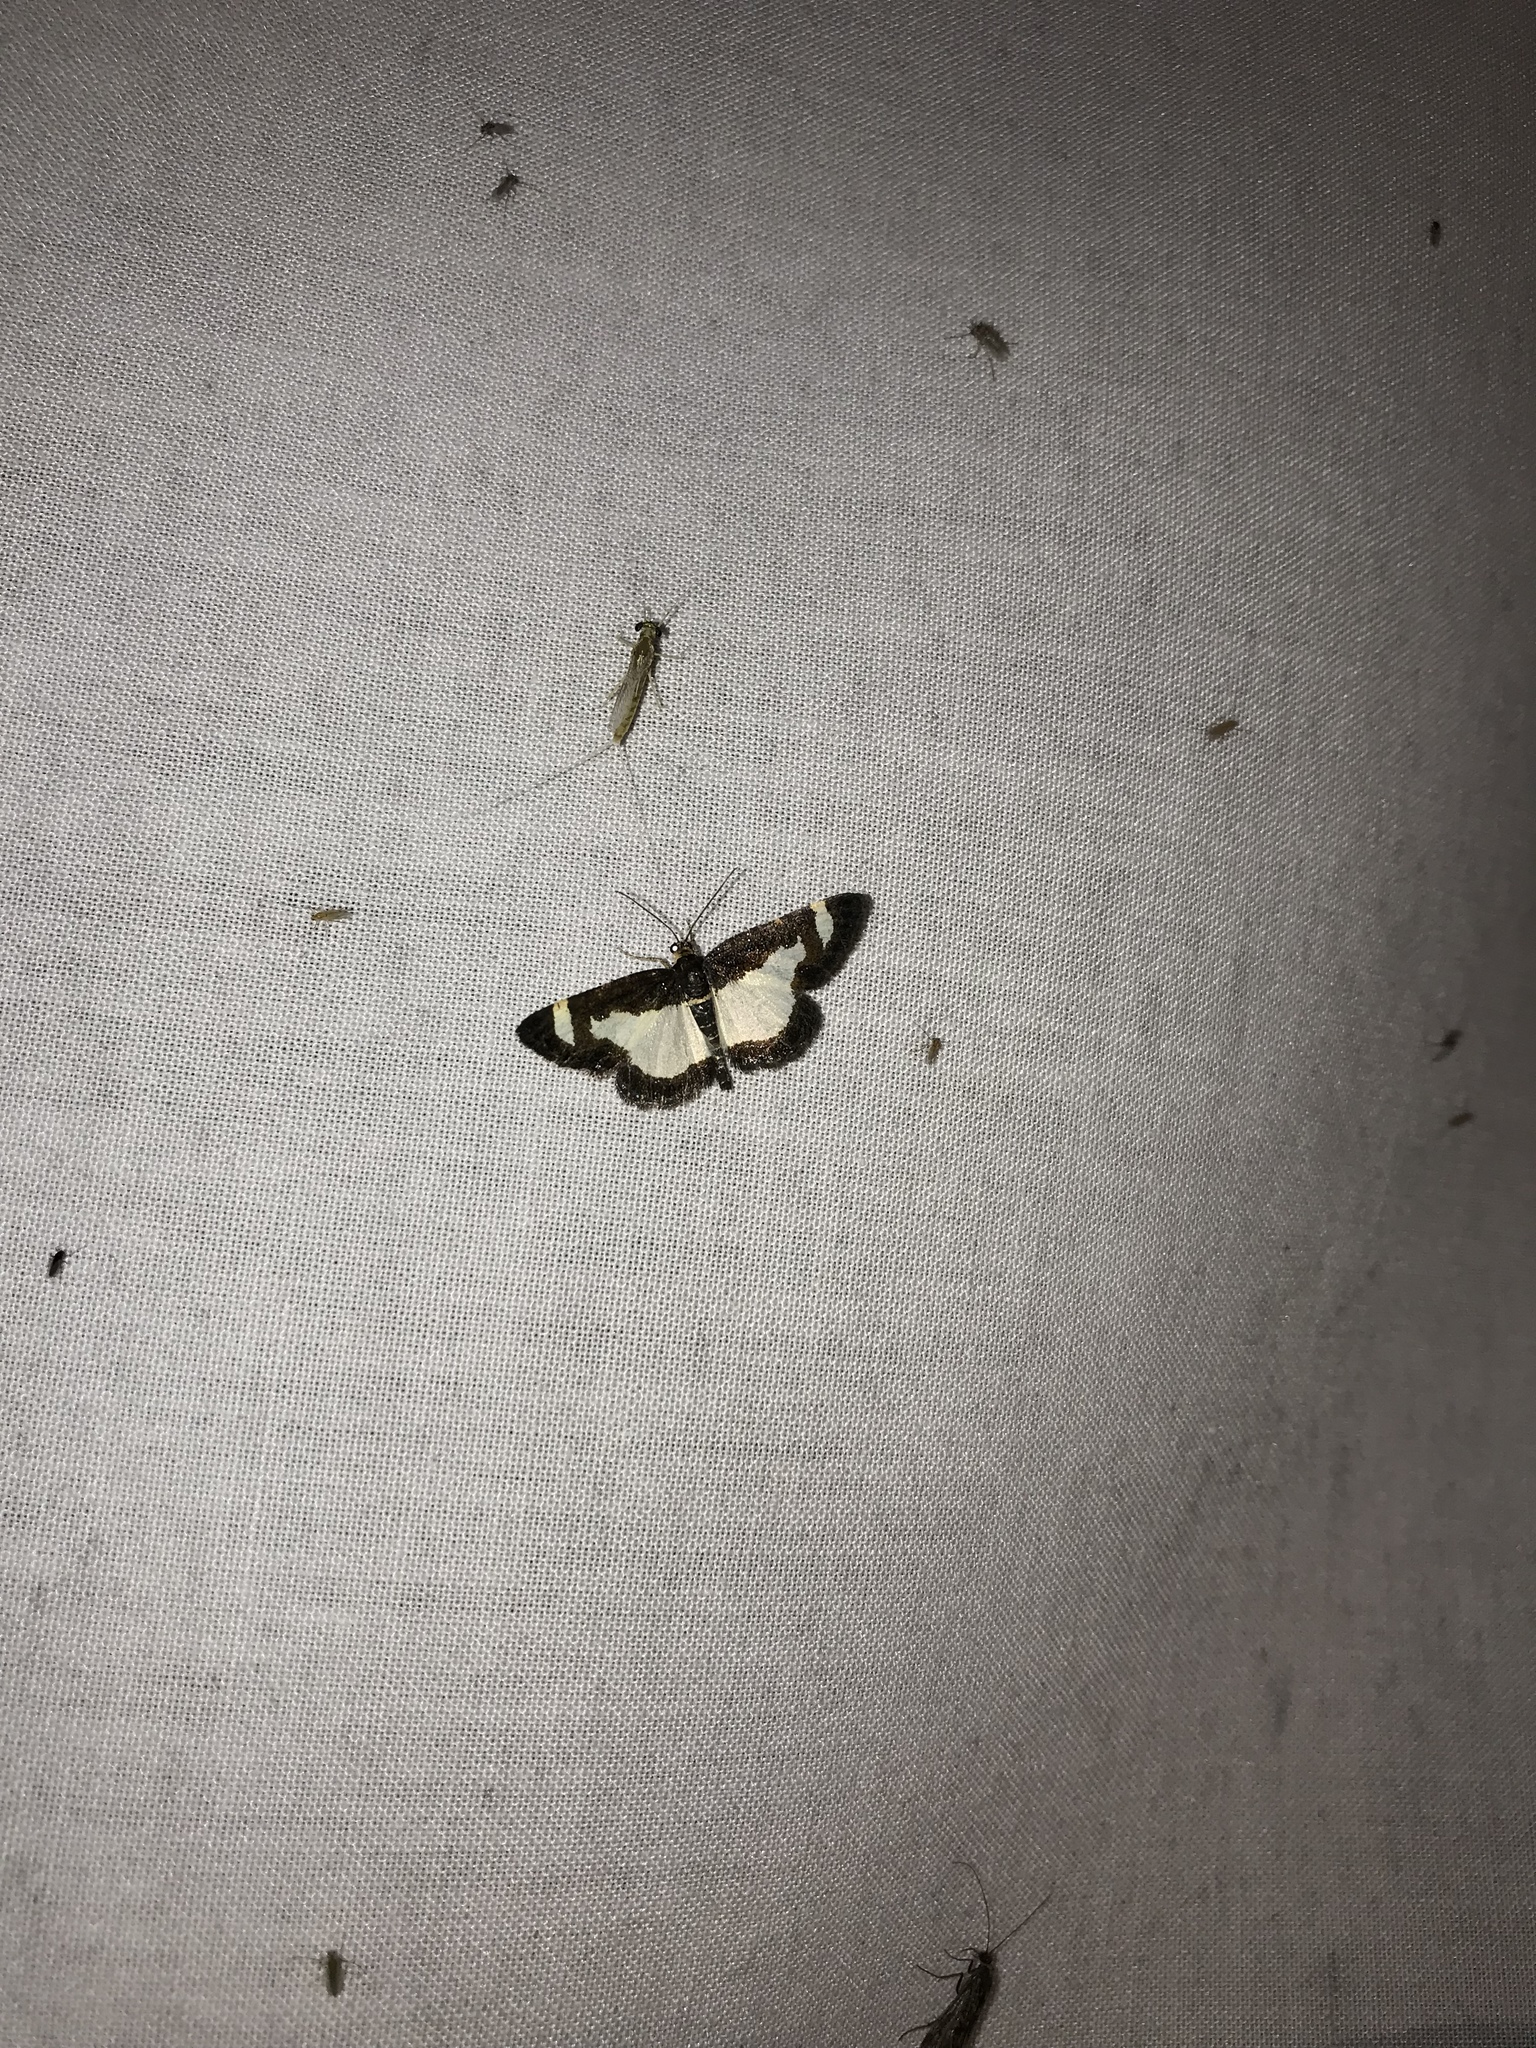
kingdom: Animalia
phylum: Arthropoda
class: Insecta
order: Lepidoptera
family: Geometridae
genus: Heliomata
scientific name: Heliomata cycladata
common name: Common spring moth
